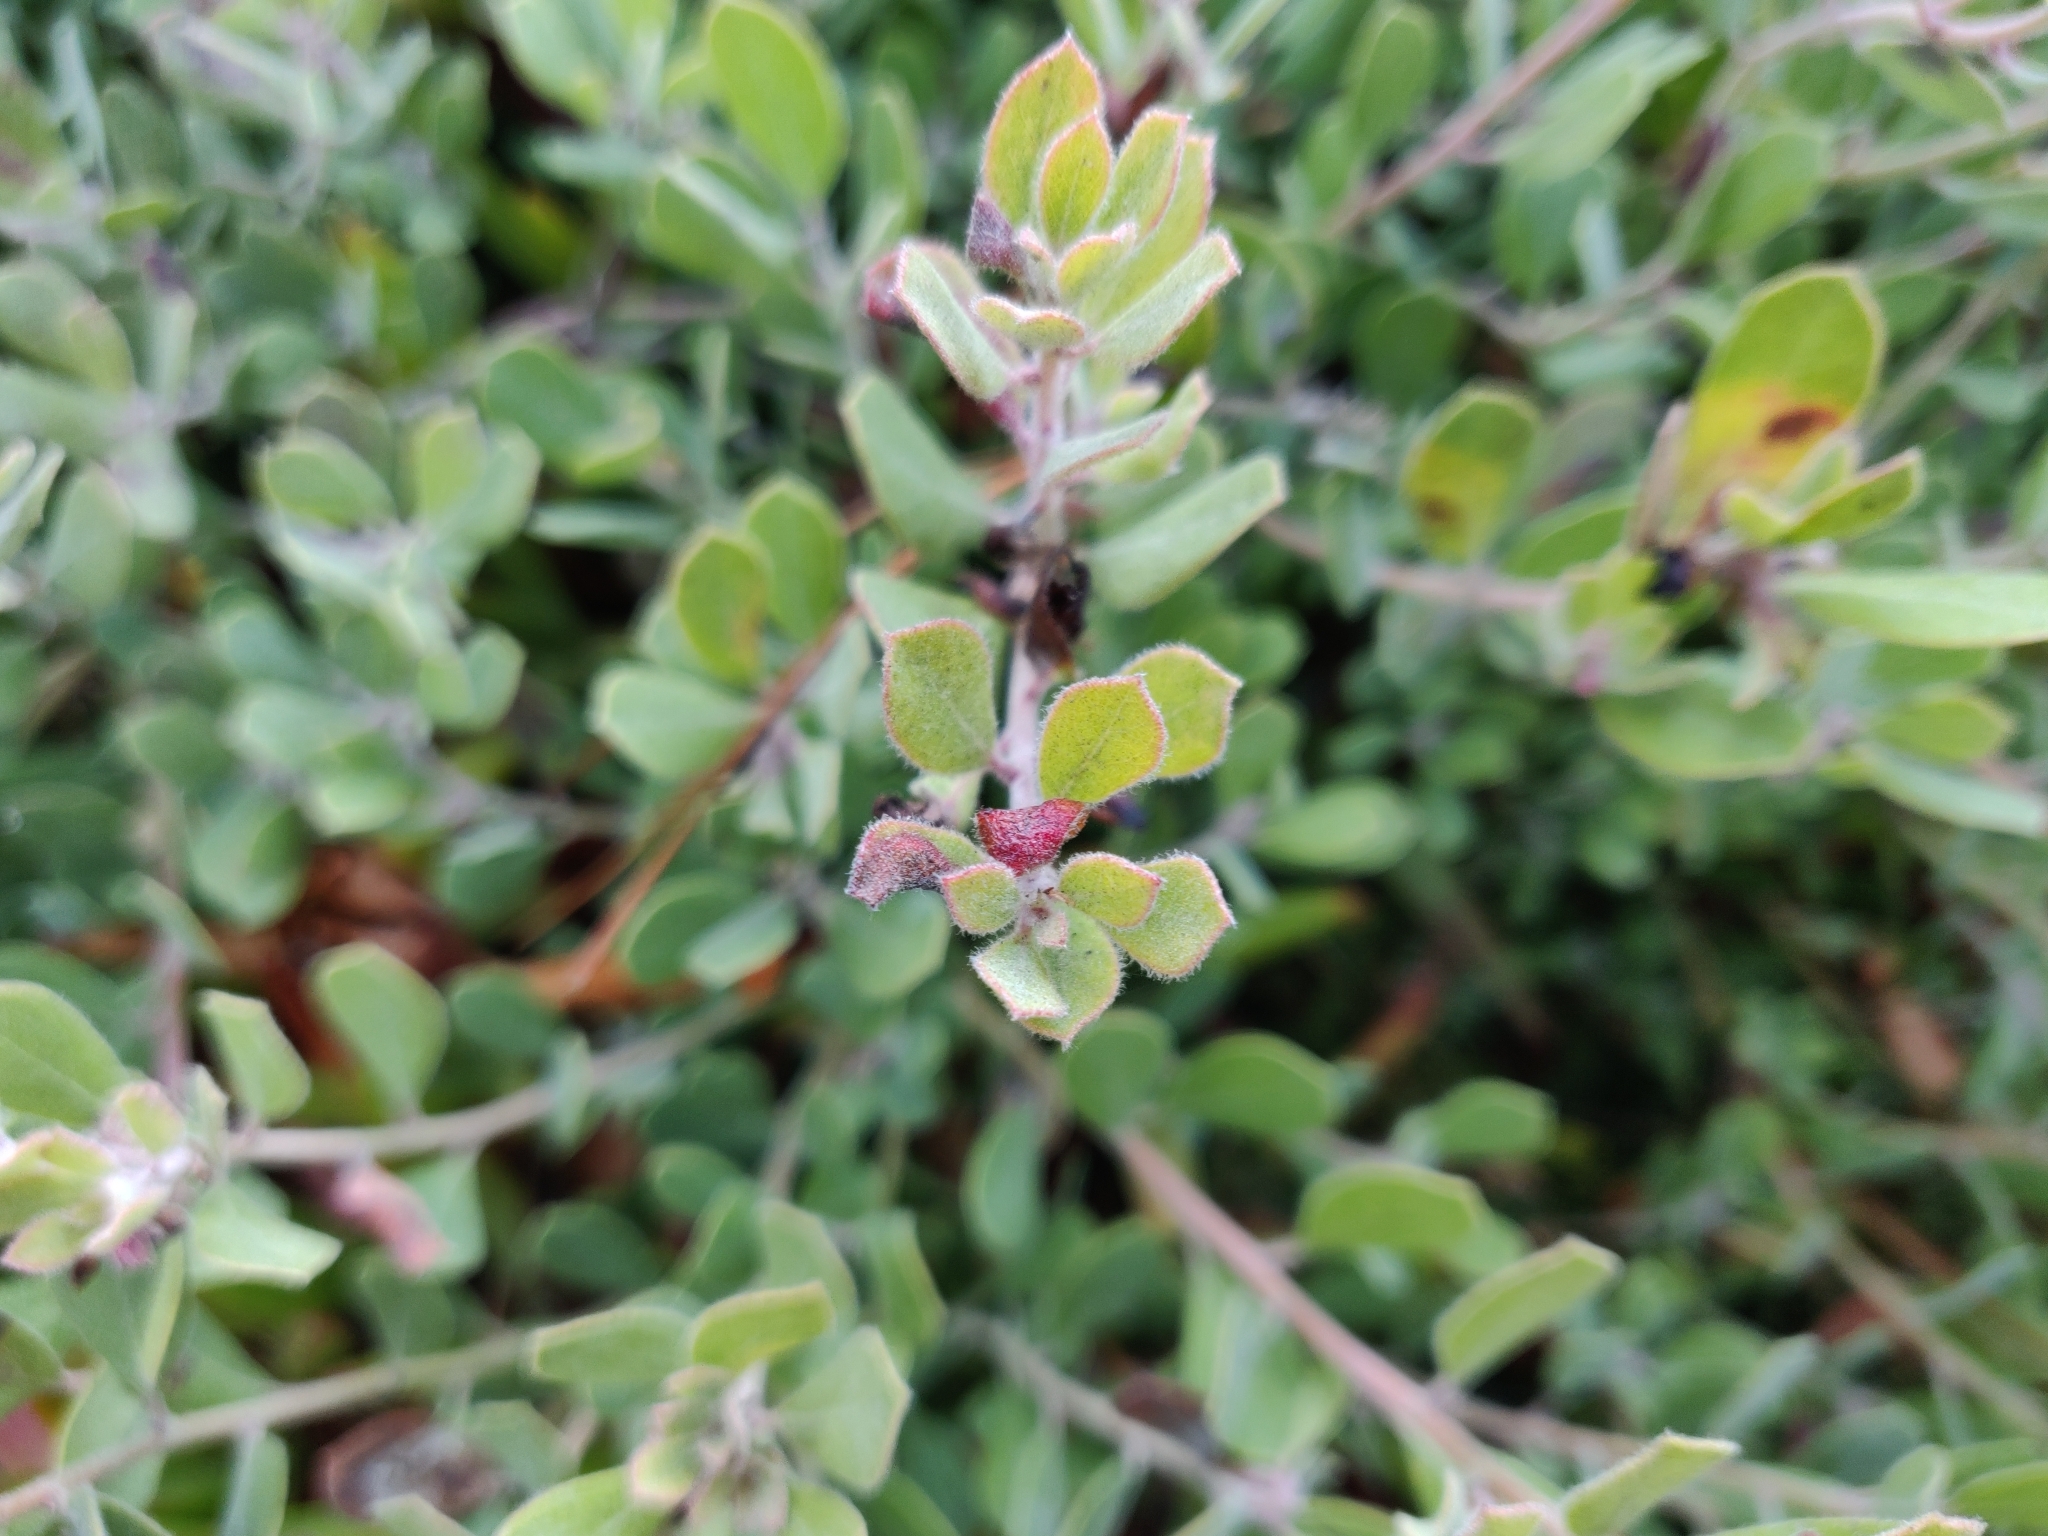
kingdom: Animalia
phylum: Arthropoda
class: Insecta
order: Hemiptera
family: Aphididae
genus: Tamalia
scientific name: Tamalia coweni
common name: Manzanita leafgall aphid
